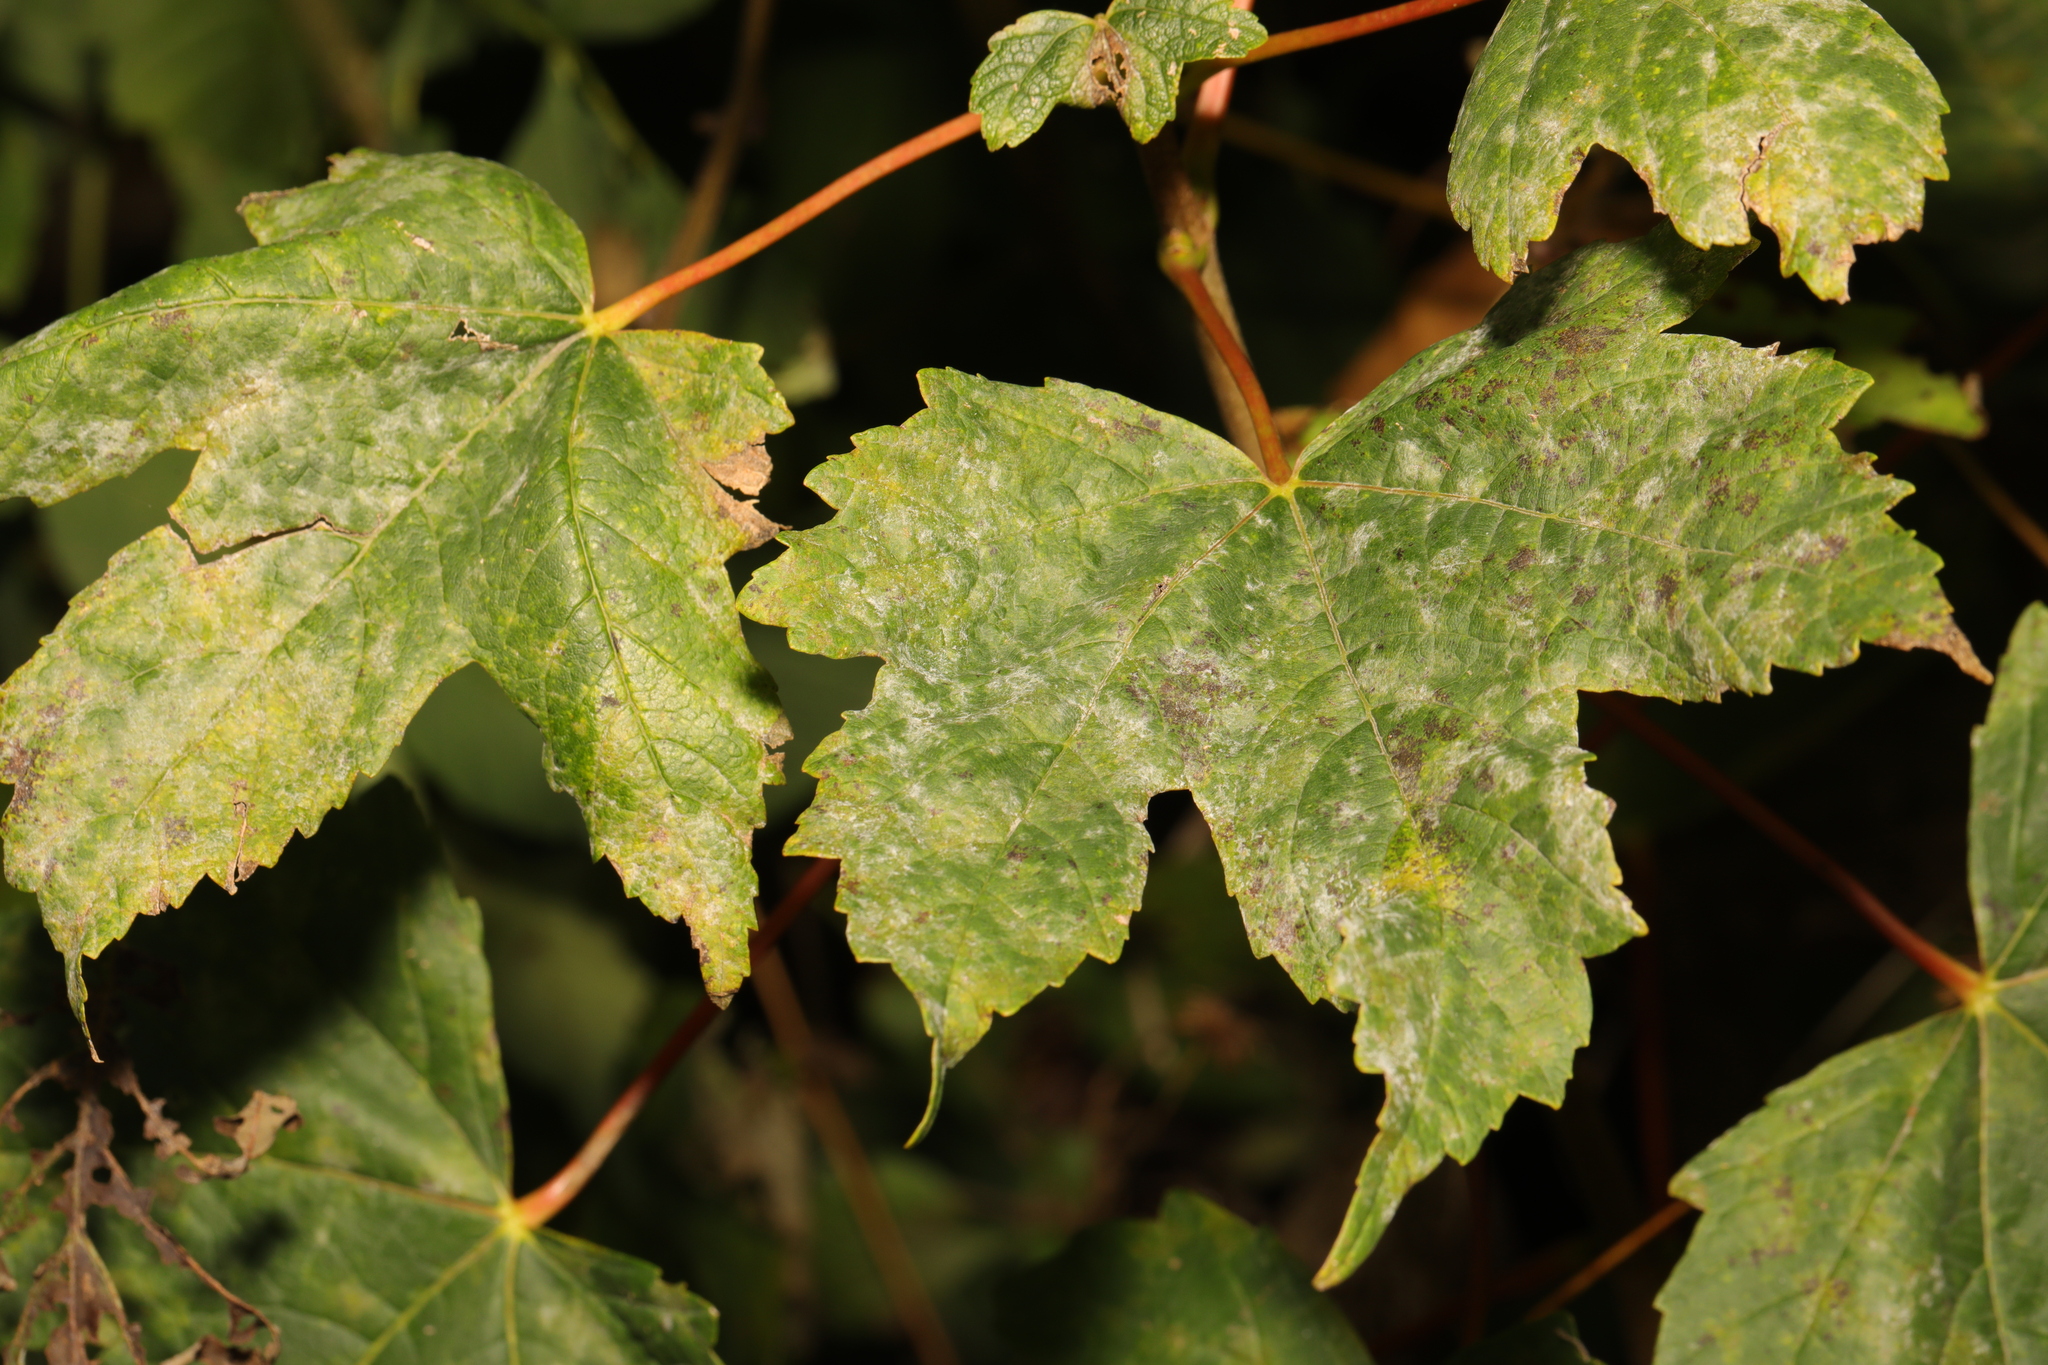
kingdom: Plantae
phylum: Tracheophyta
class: Magnoliopsida
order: Sapindales
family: Sapindaceae
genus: Acer
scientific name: Acer pseudoplatanus
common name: Sycamore
